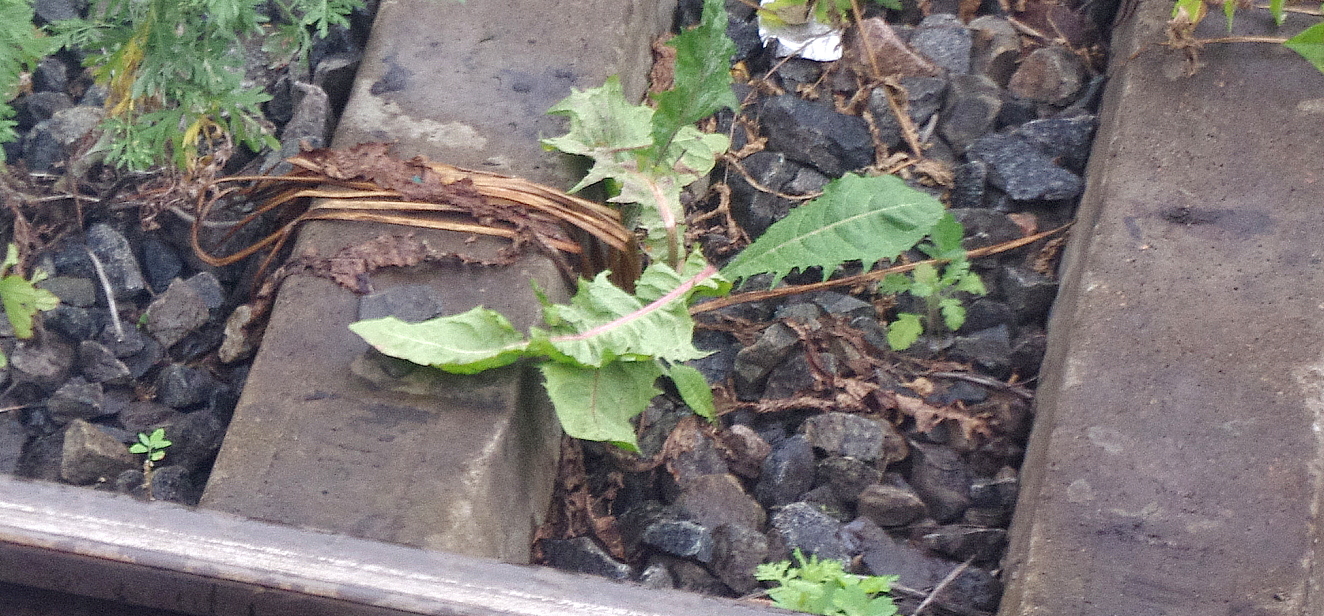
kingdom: Plantae
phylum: Tracheophyta
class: Magnoliopsida
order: Asterales
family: Asteraceae
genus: Taraxacum
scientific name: Taraxacum officinale
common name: Common dandelion
